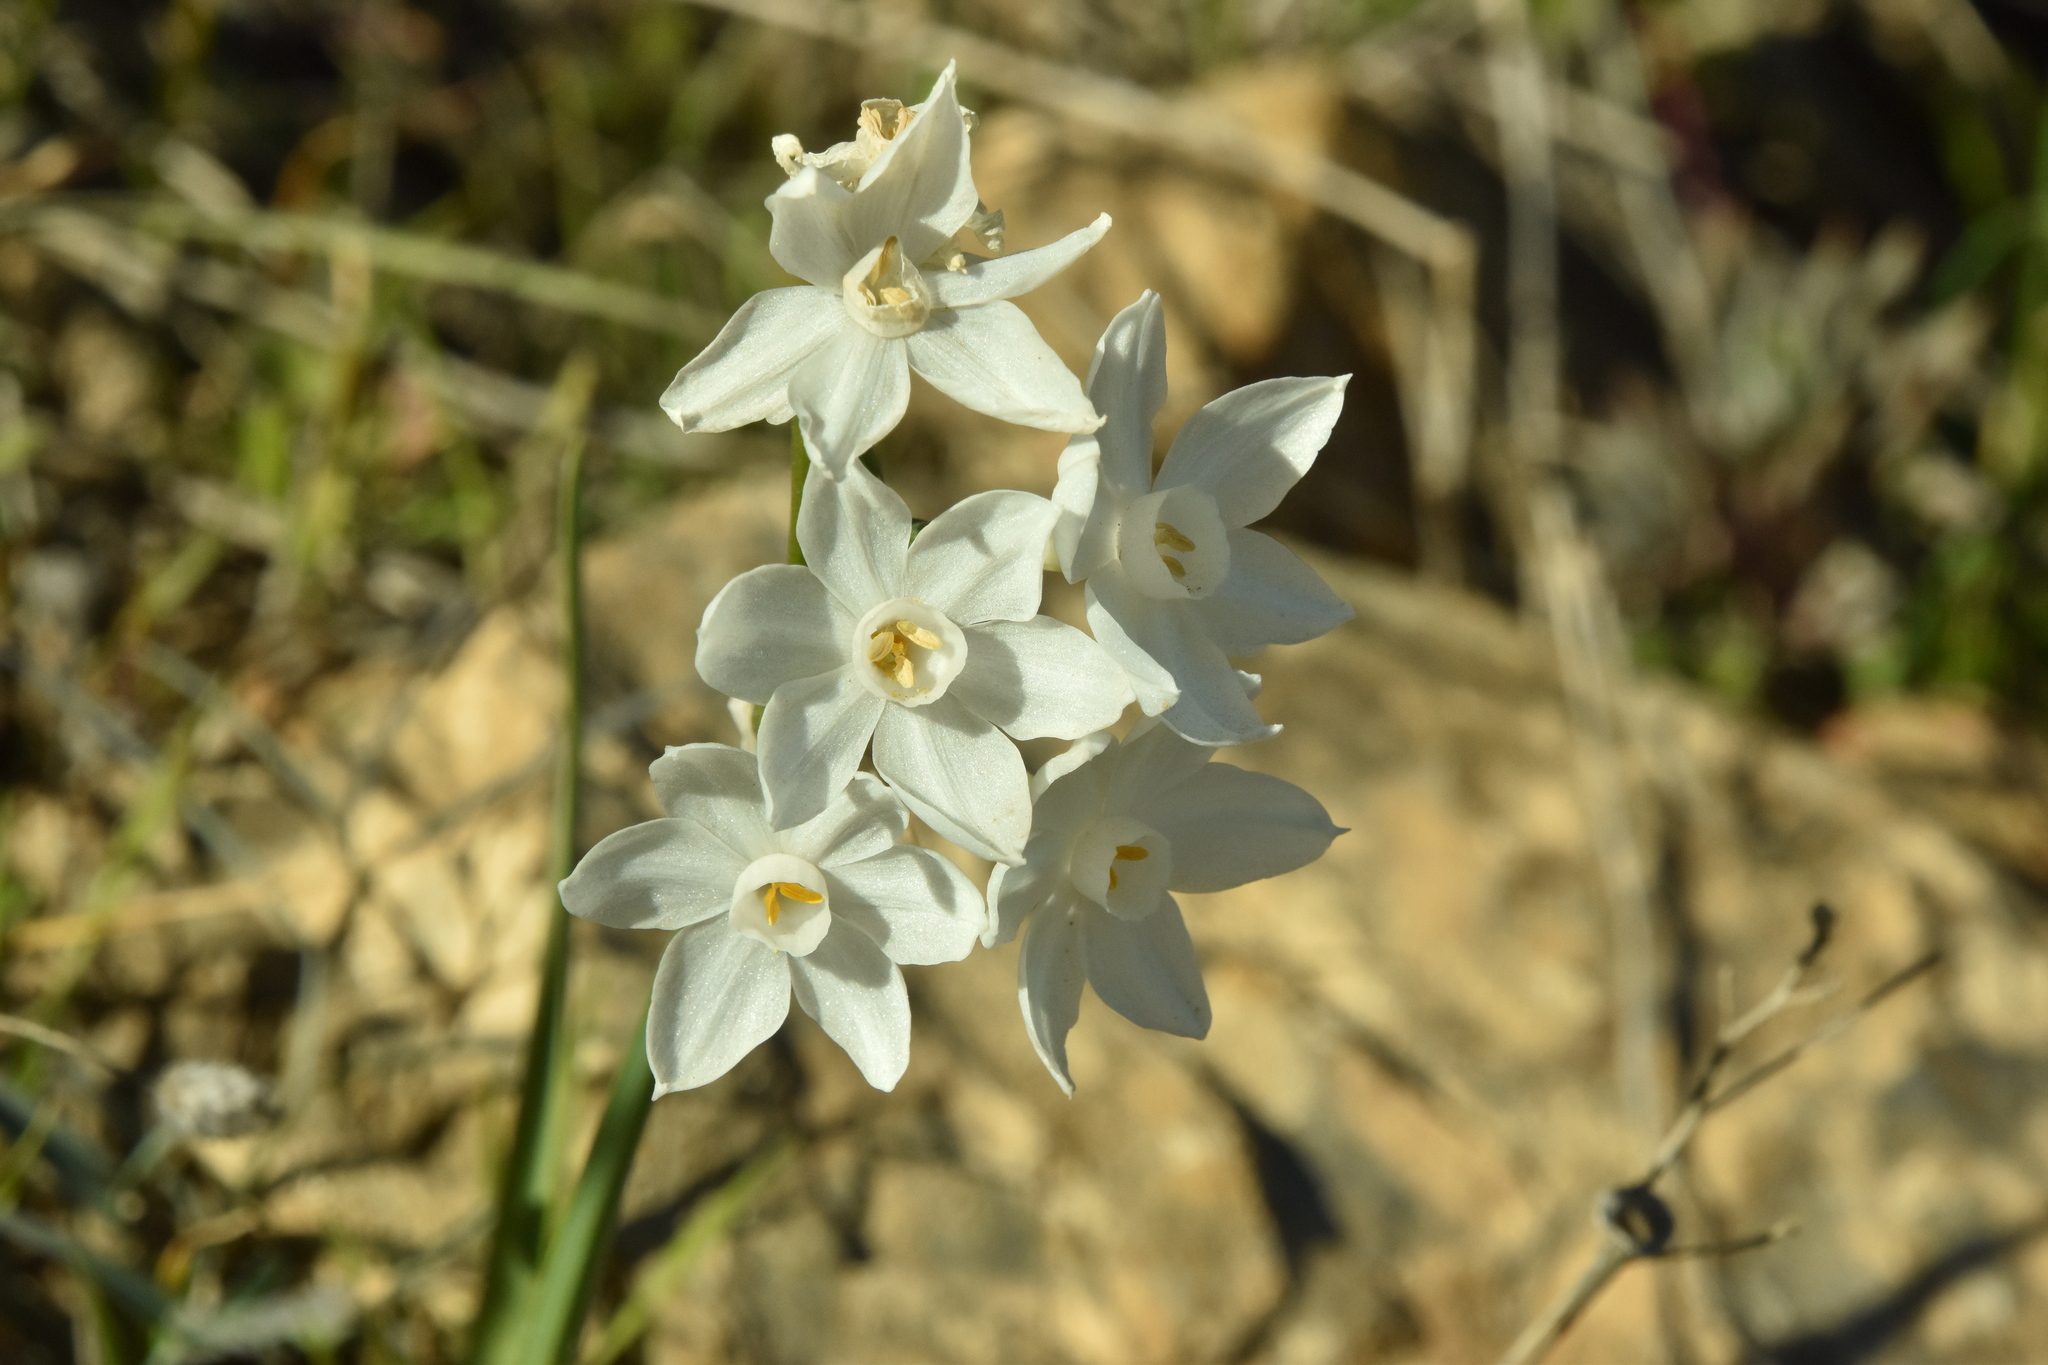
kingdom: Plantae
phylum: Tracheophyta
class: Liliopsida
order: Asparagales
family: Amaryllidaceae
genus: Narcissus
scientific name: Narcissus papyraceus
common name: Paper-white daffodil
